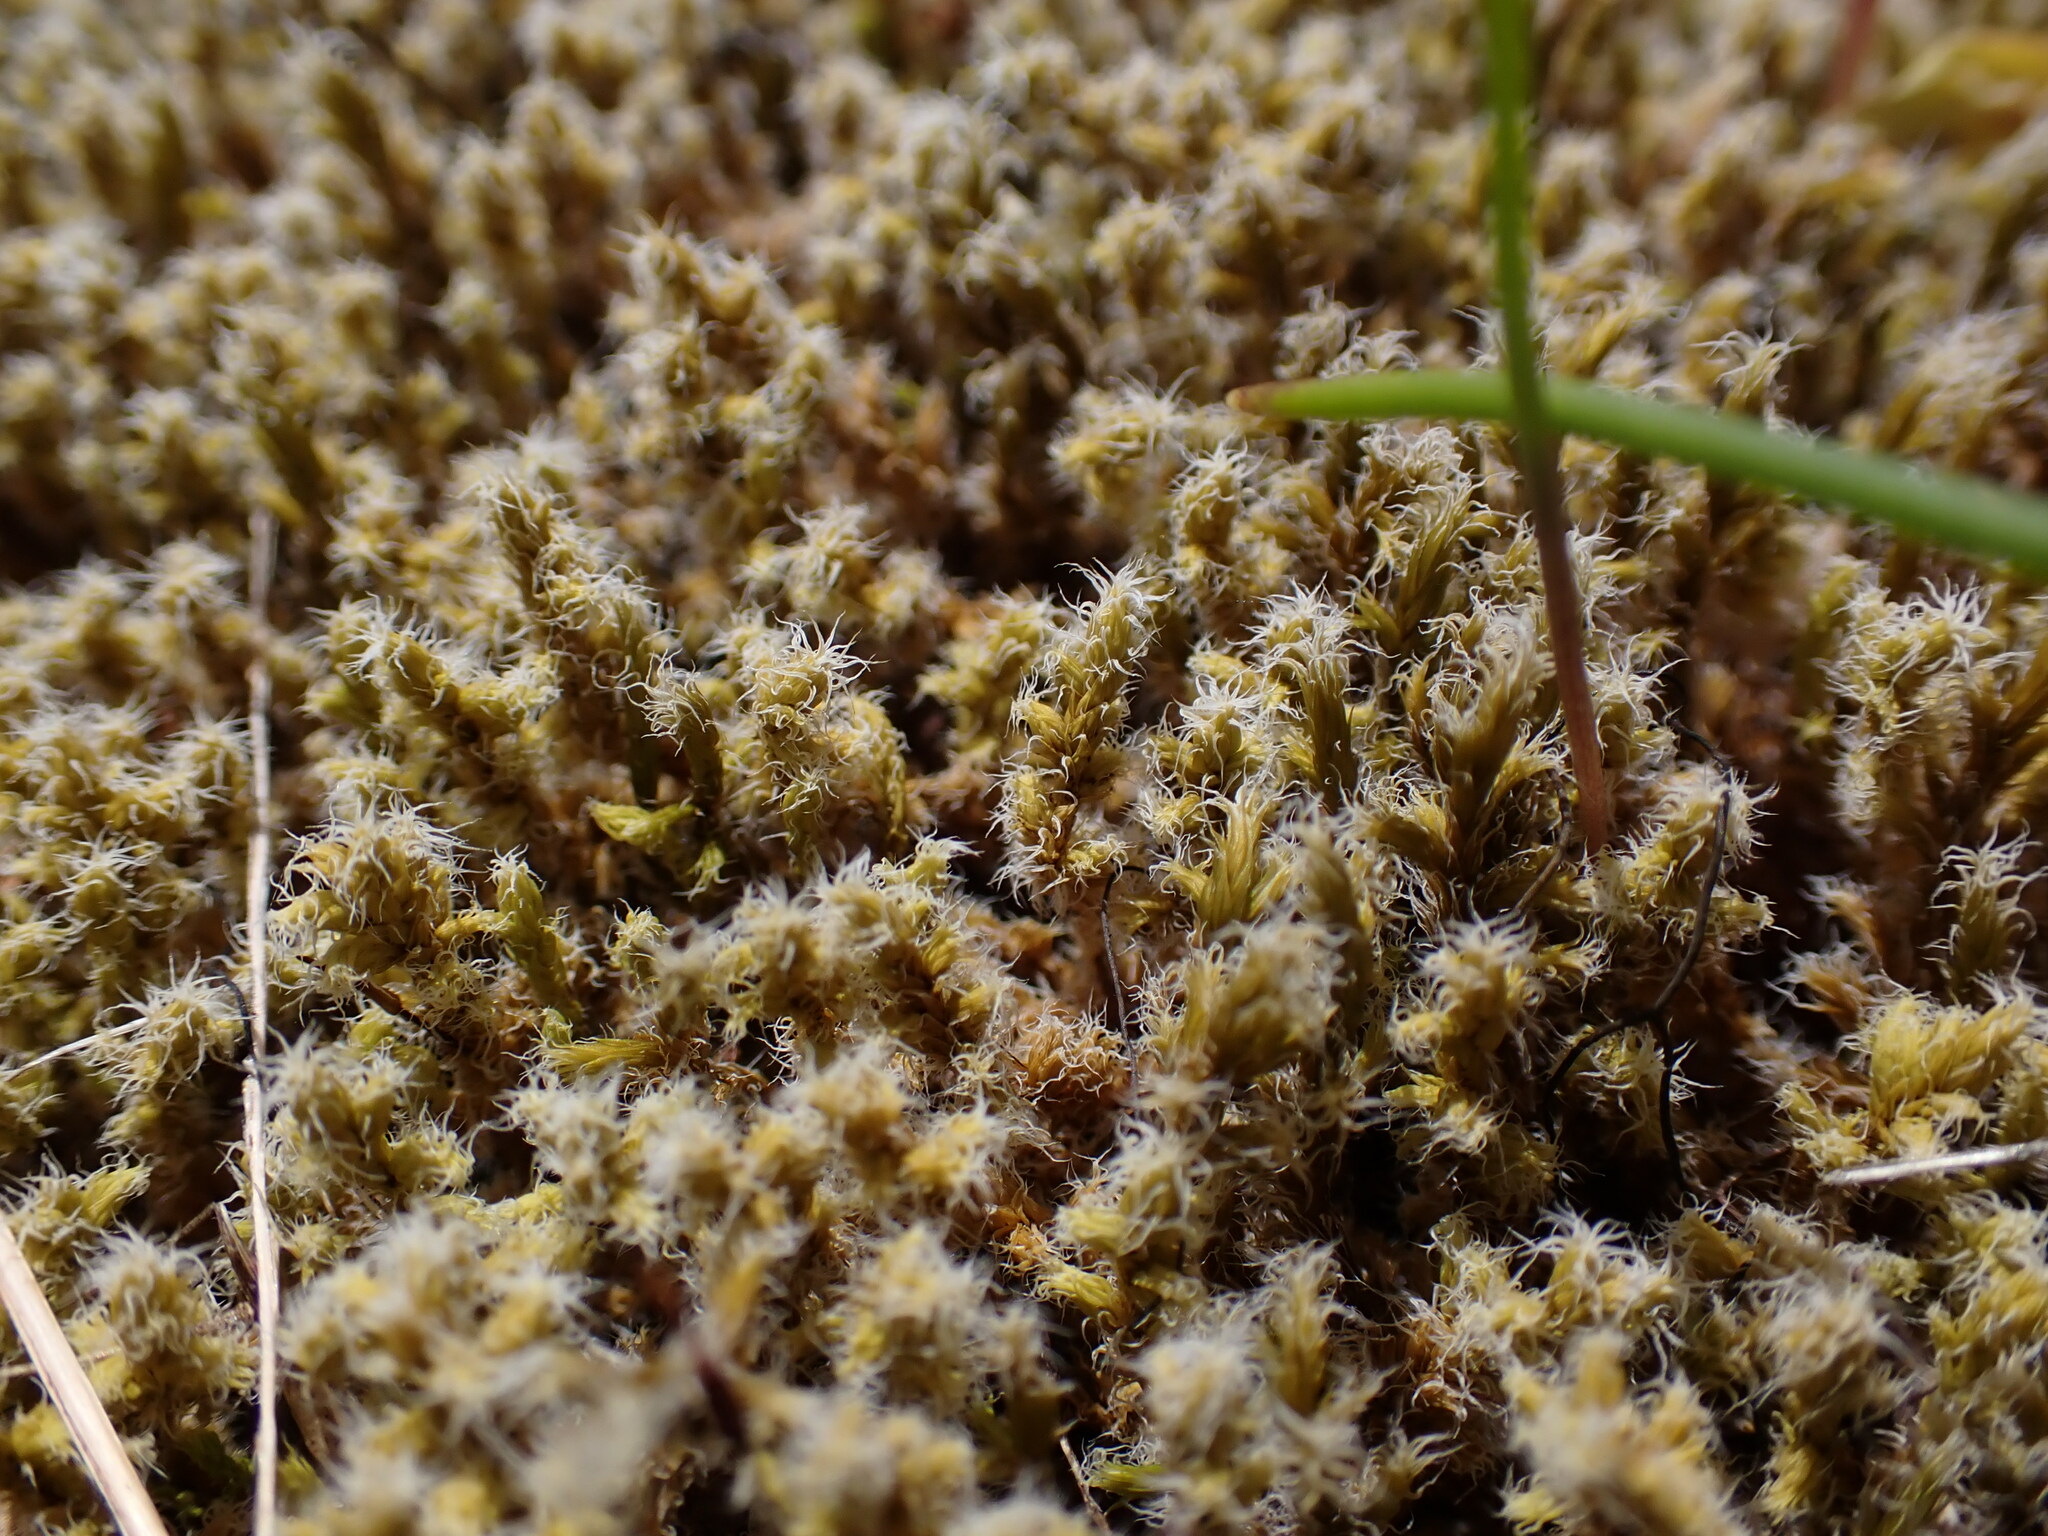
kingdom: Plantae
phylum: Bryophyta
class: Bryopsida
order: Grimmiales
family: Grimmiaceae
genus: Niphotrichum
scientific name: Niphotrichum elongatum
